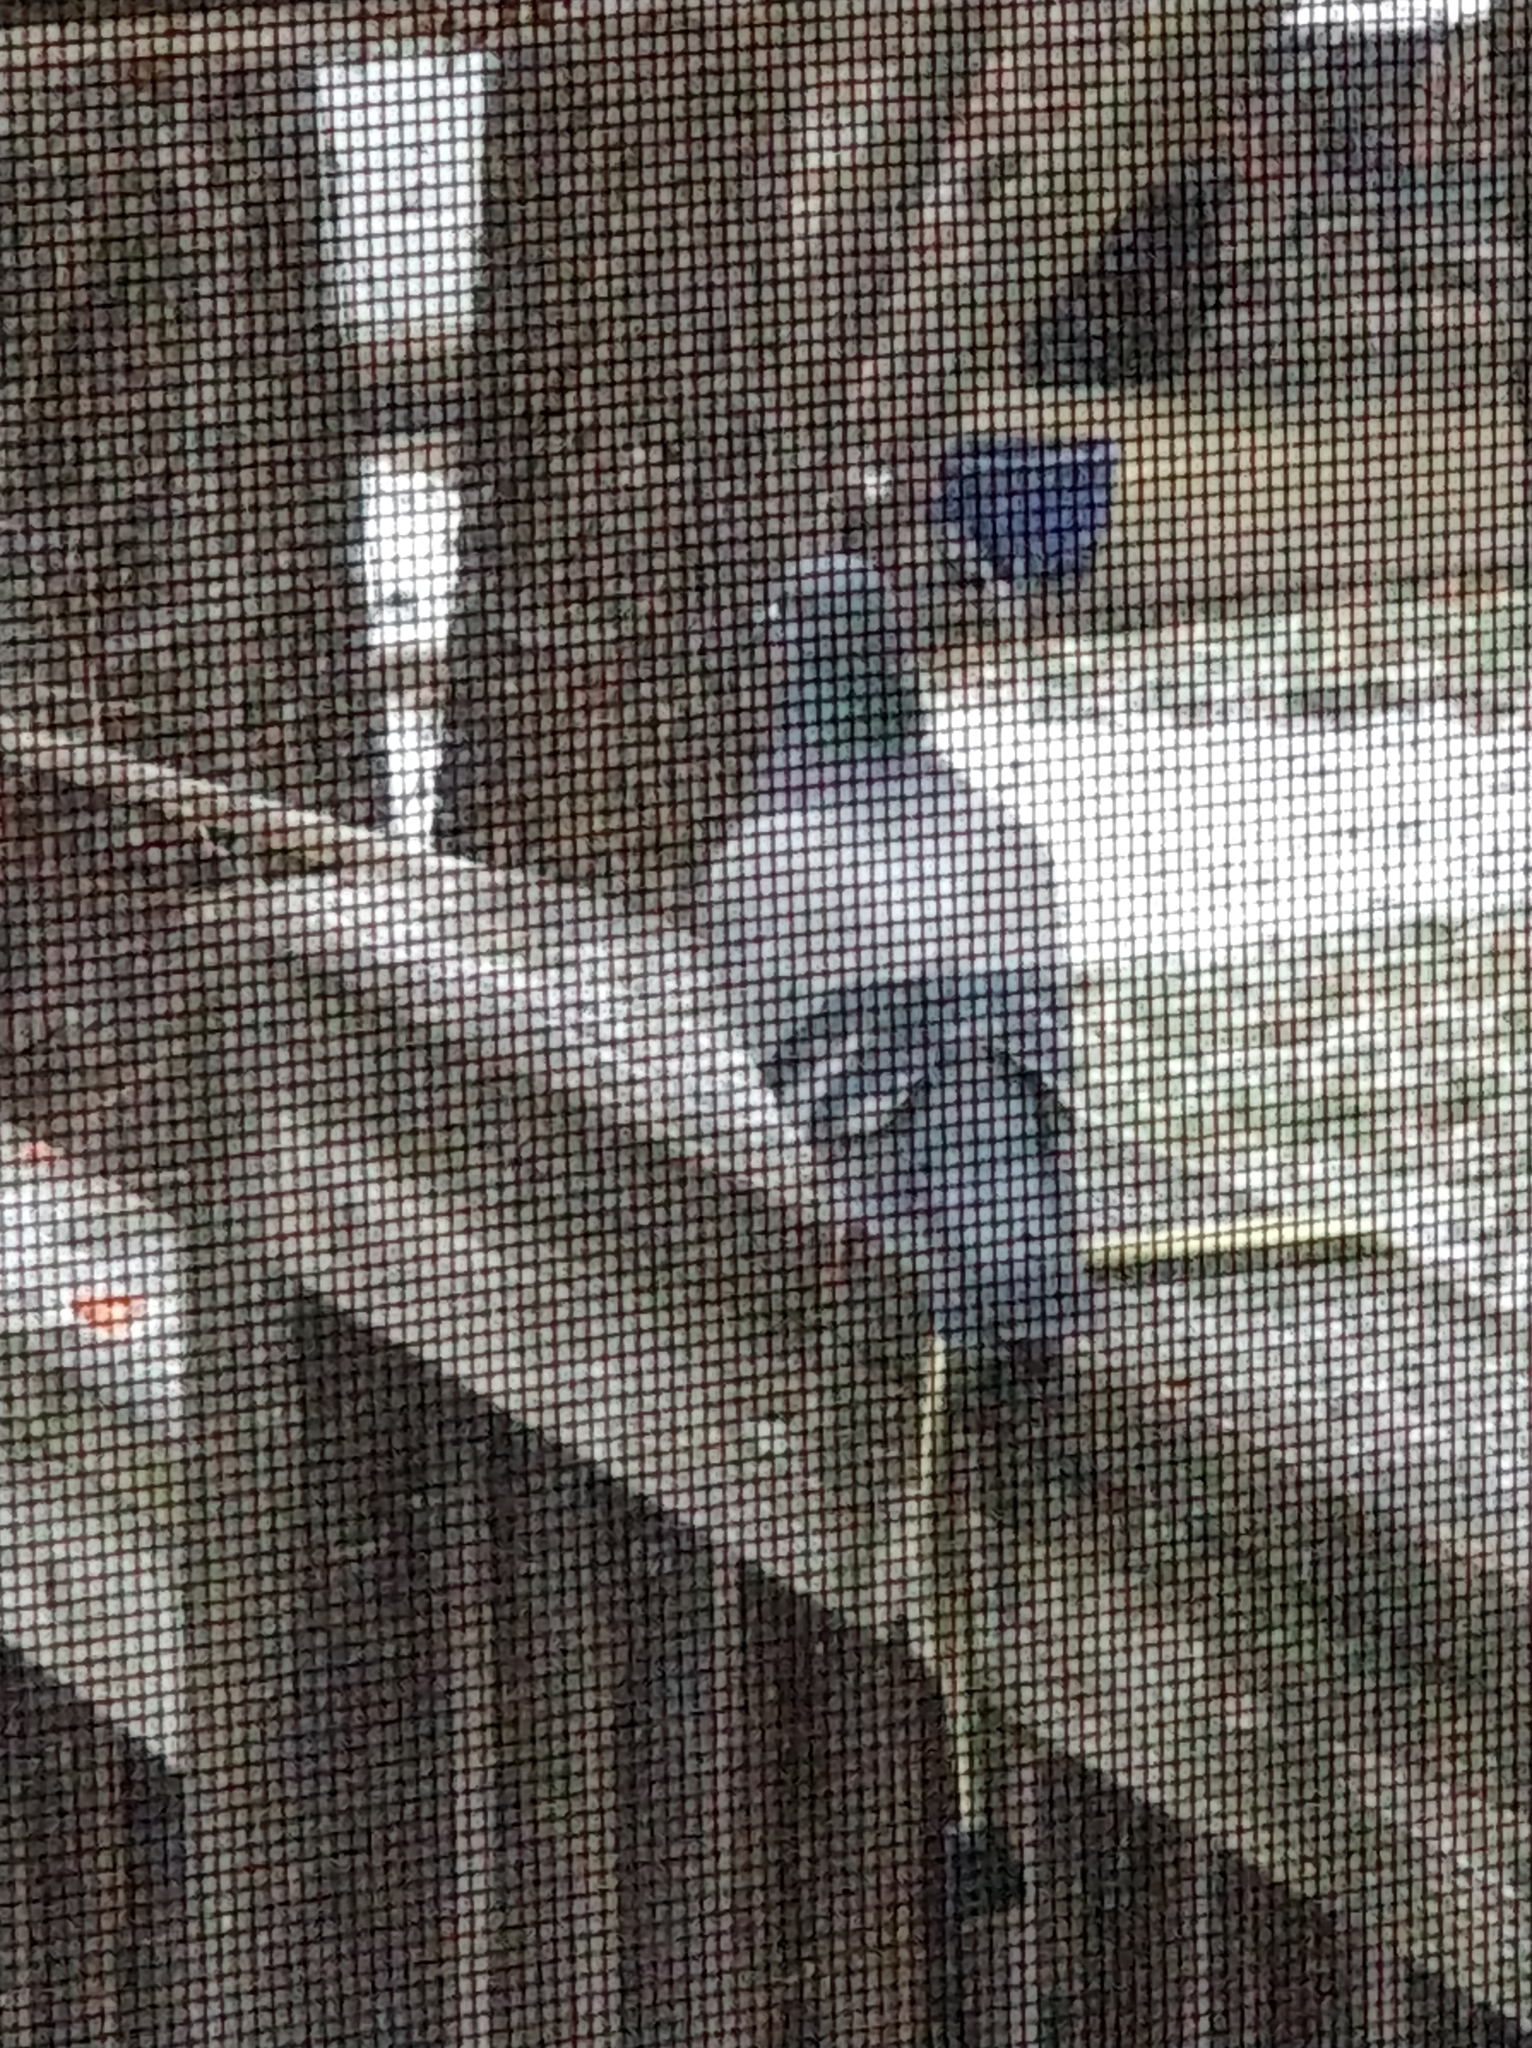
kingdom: Animalia
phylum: Chordata
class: Aves
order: Columbiformes
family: Columbidae
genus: Columba
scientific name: Columba livia
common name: Rock pigeon
